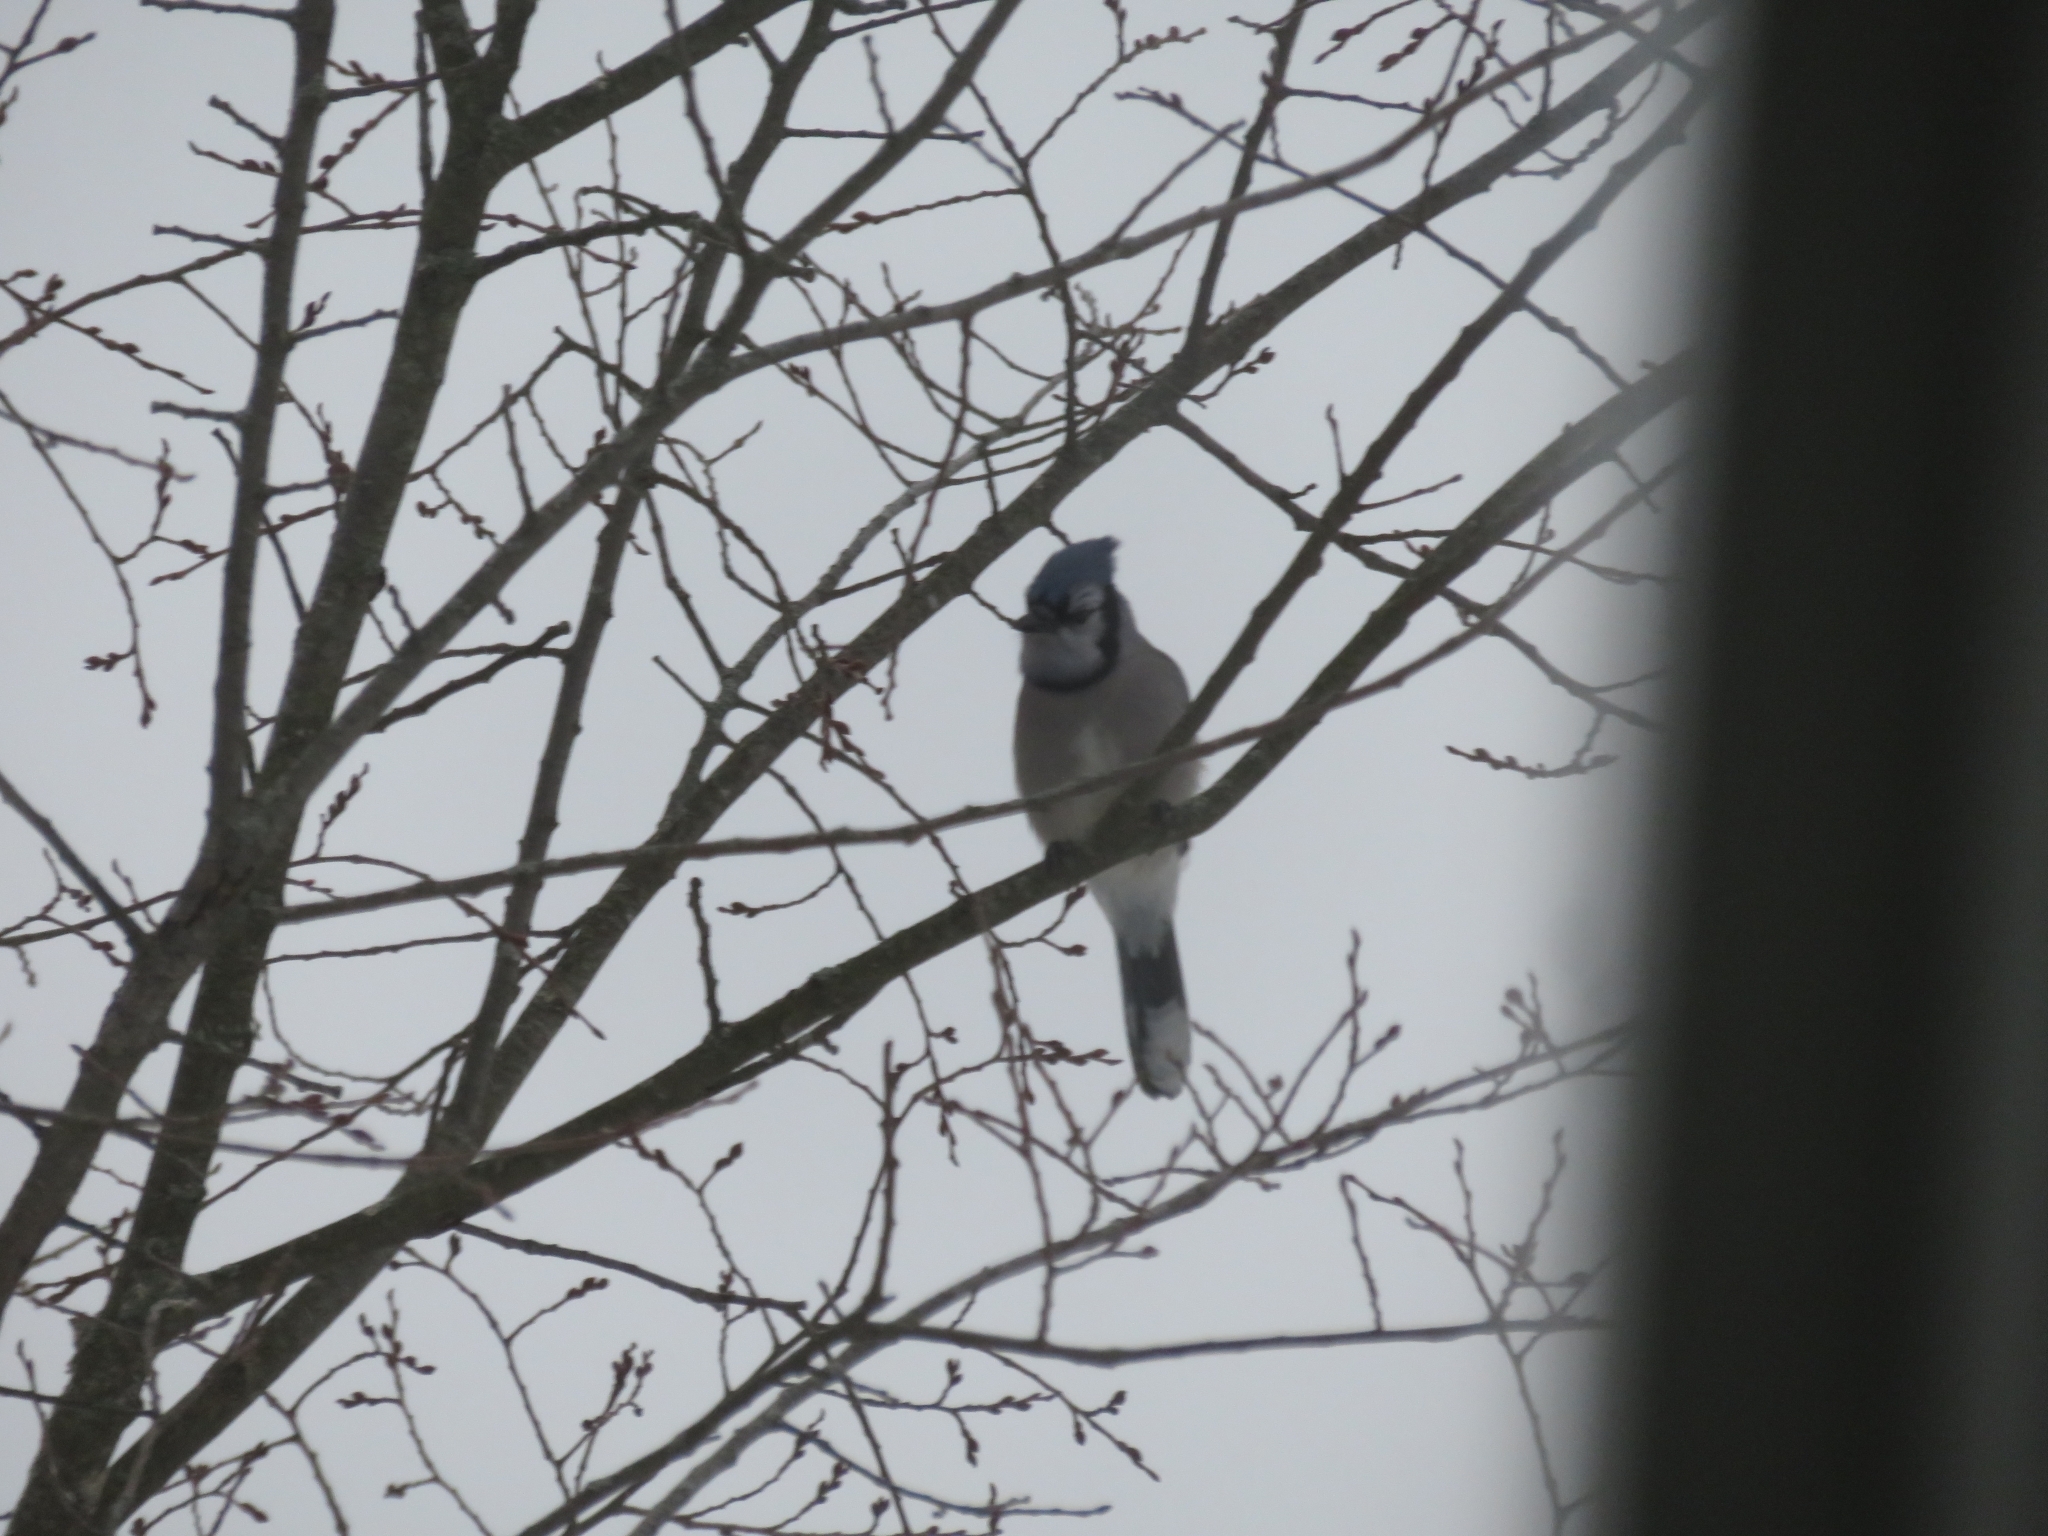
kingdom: Animalia
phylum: Chordata
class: Aves
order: Passeriformes
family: Corvidae
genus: Cyanocitta
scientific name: Cyanocitta cristata
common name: Blue jay
